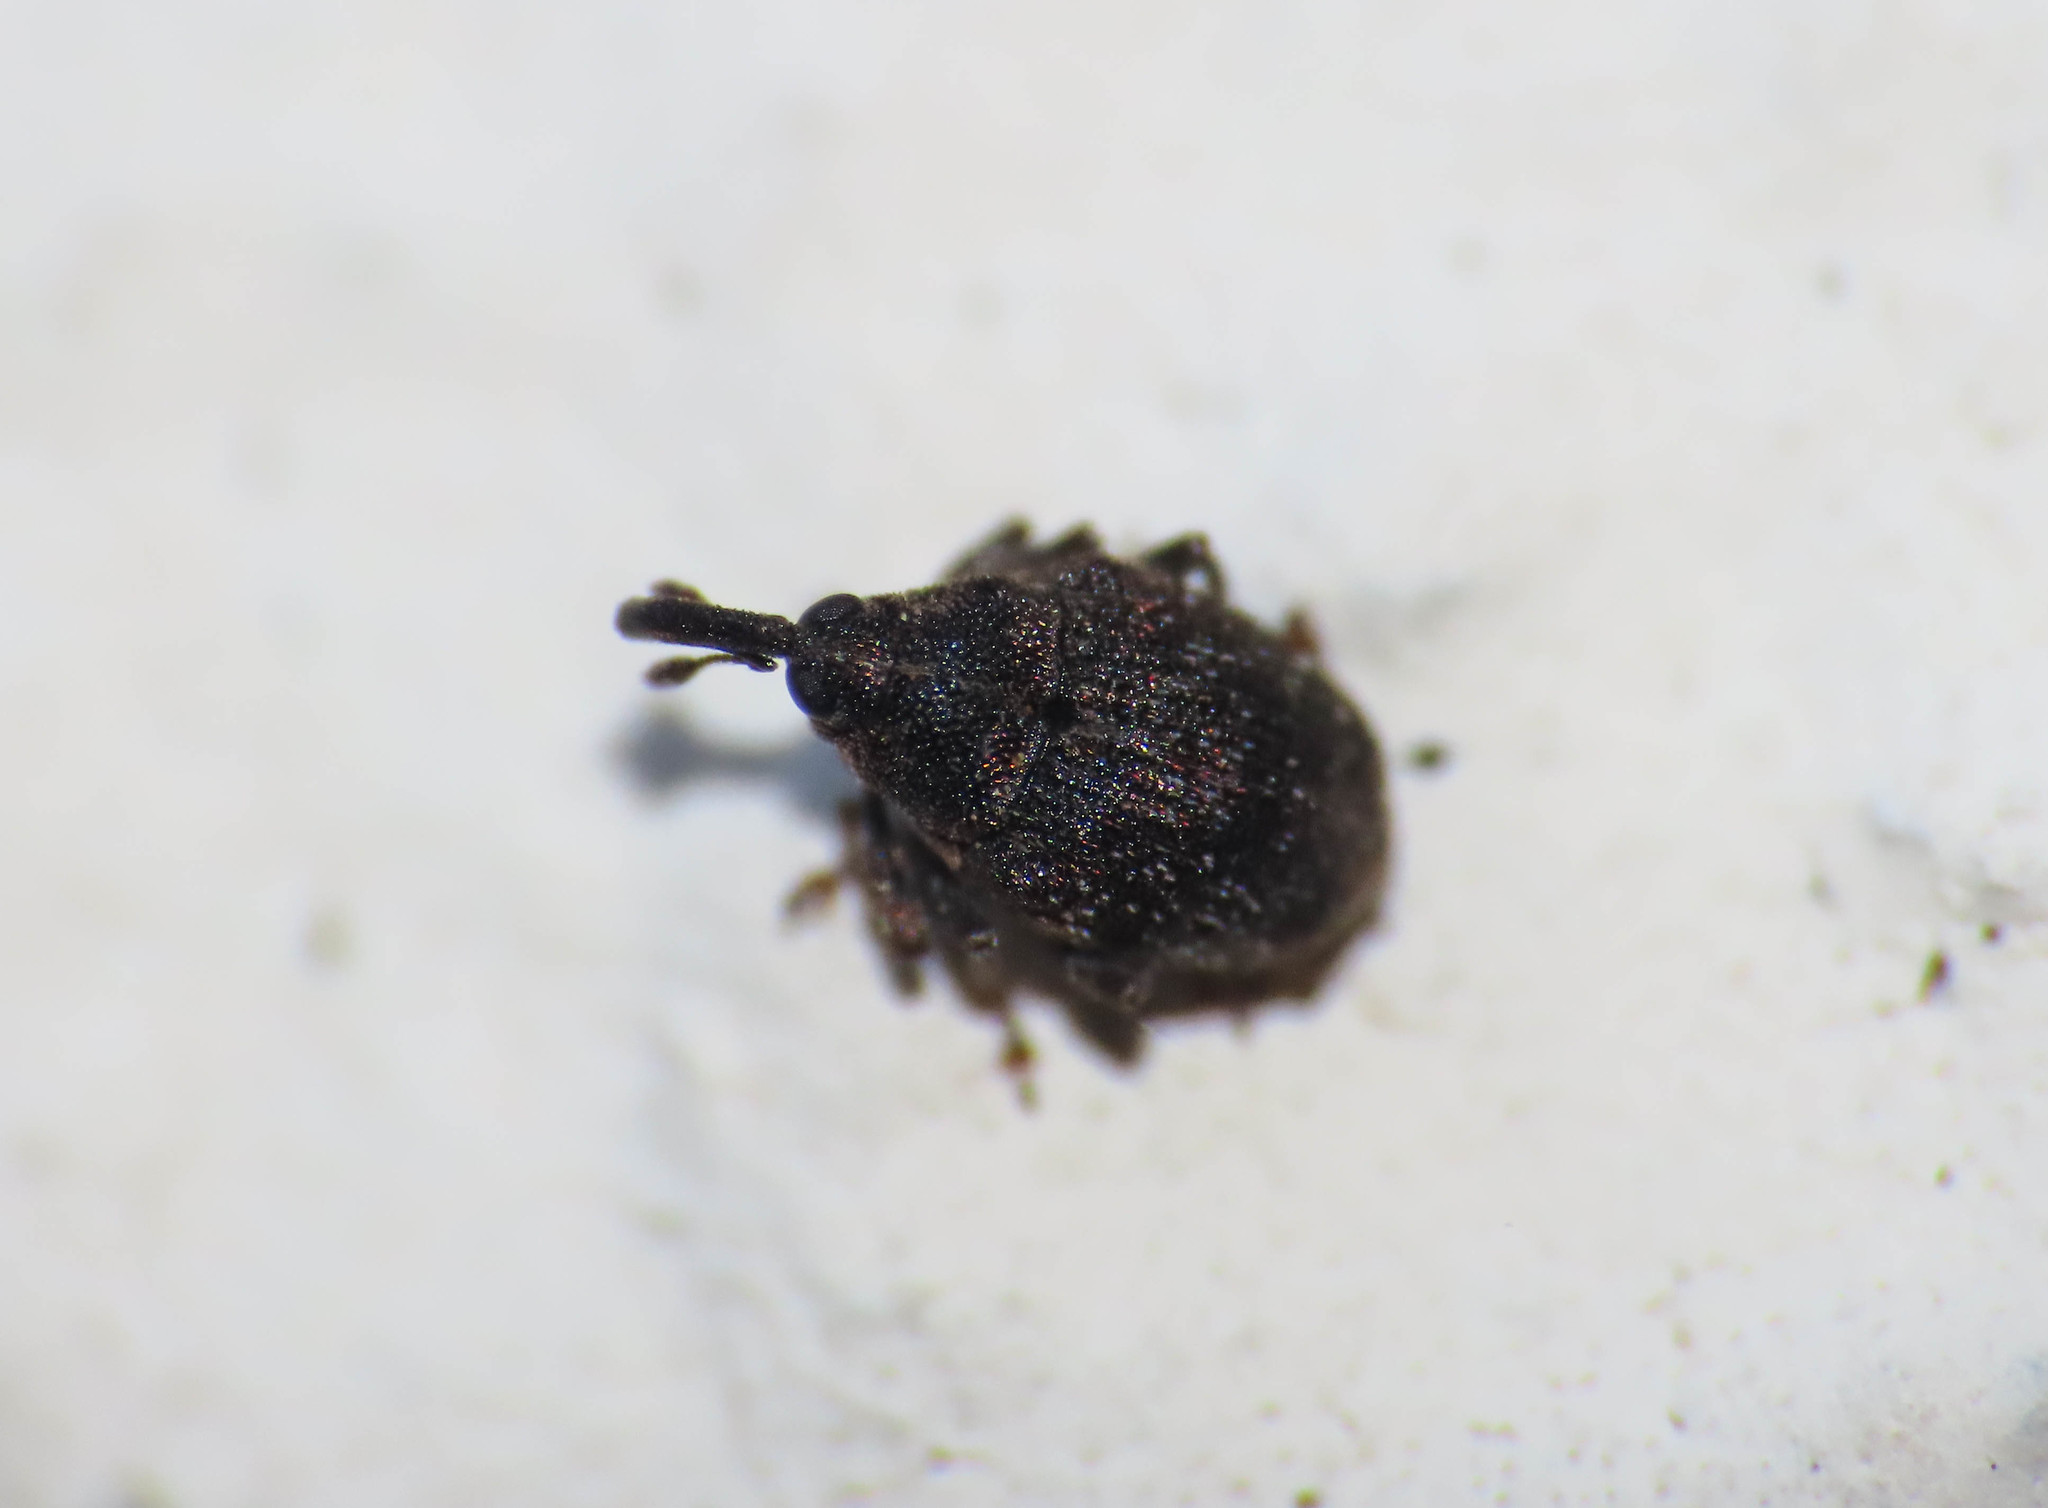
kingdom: Animalia
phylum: Arthropoda
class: Insecta
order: Coleoptera
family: Curculionidae
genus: Sirocalodes
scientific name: Sirocalodes mixtus
